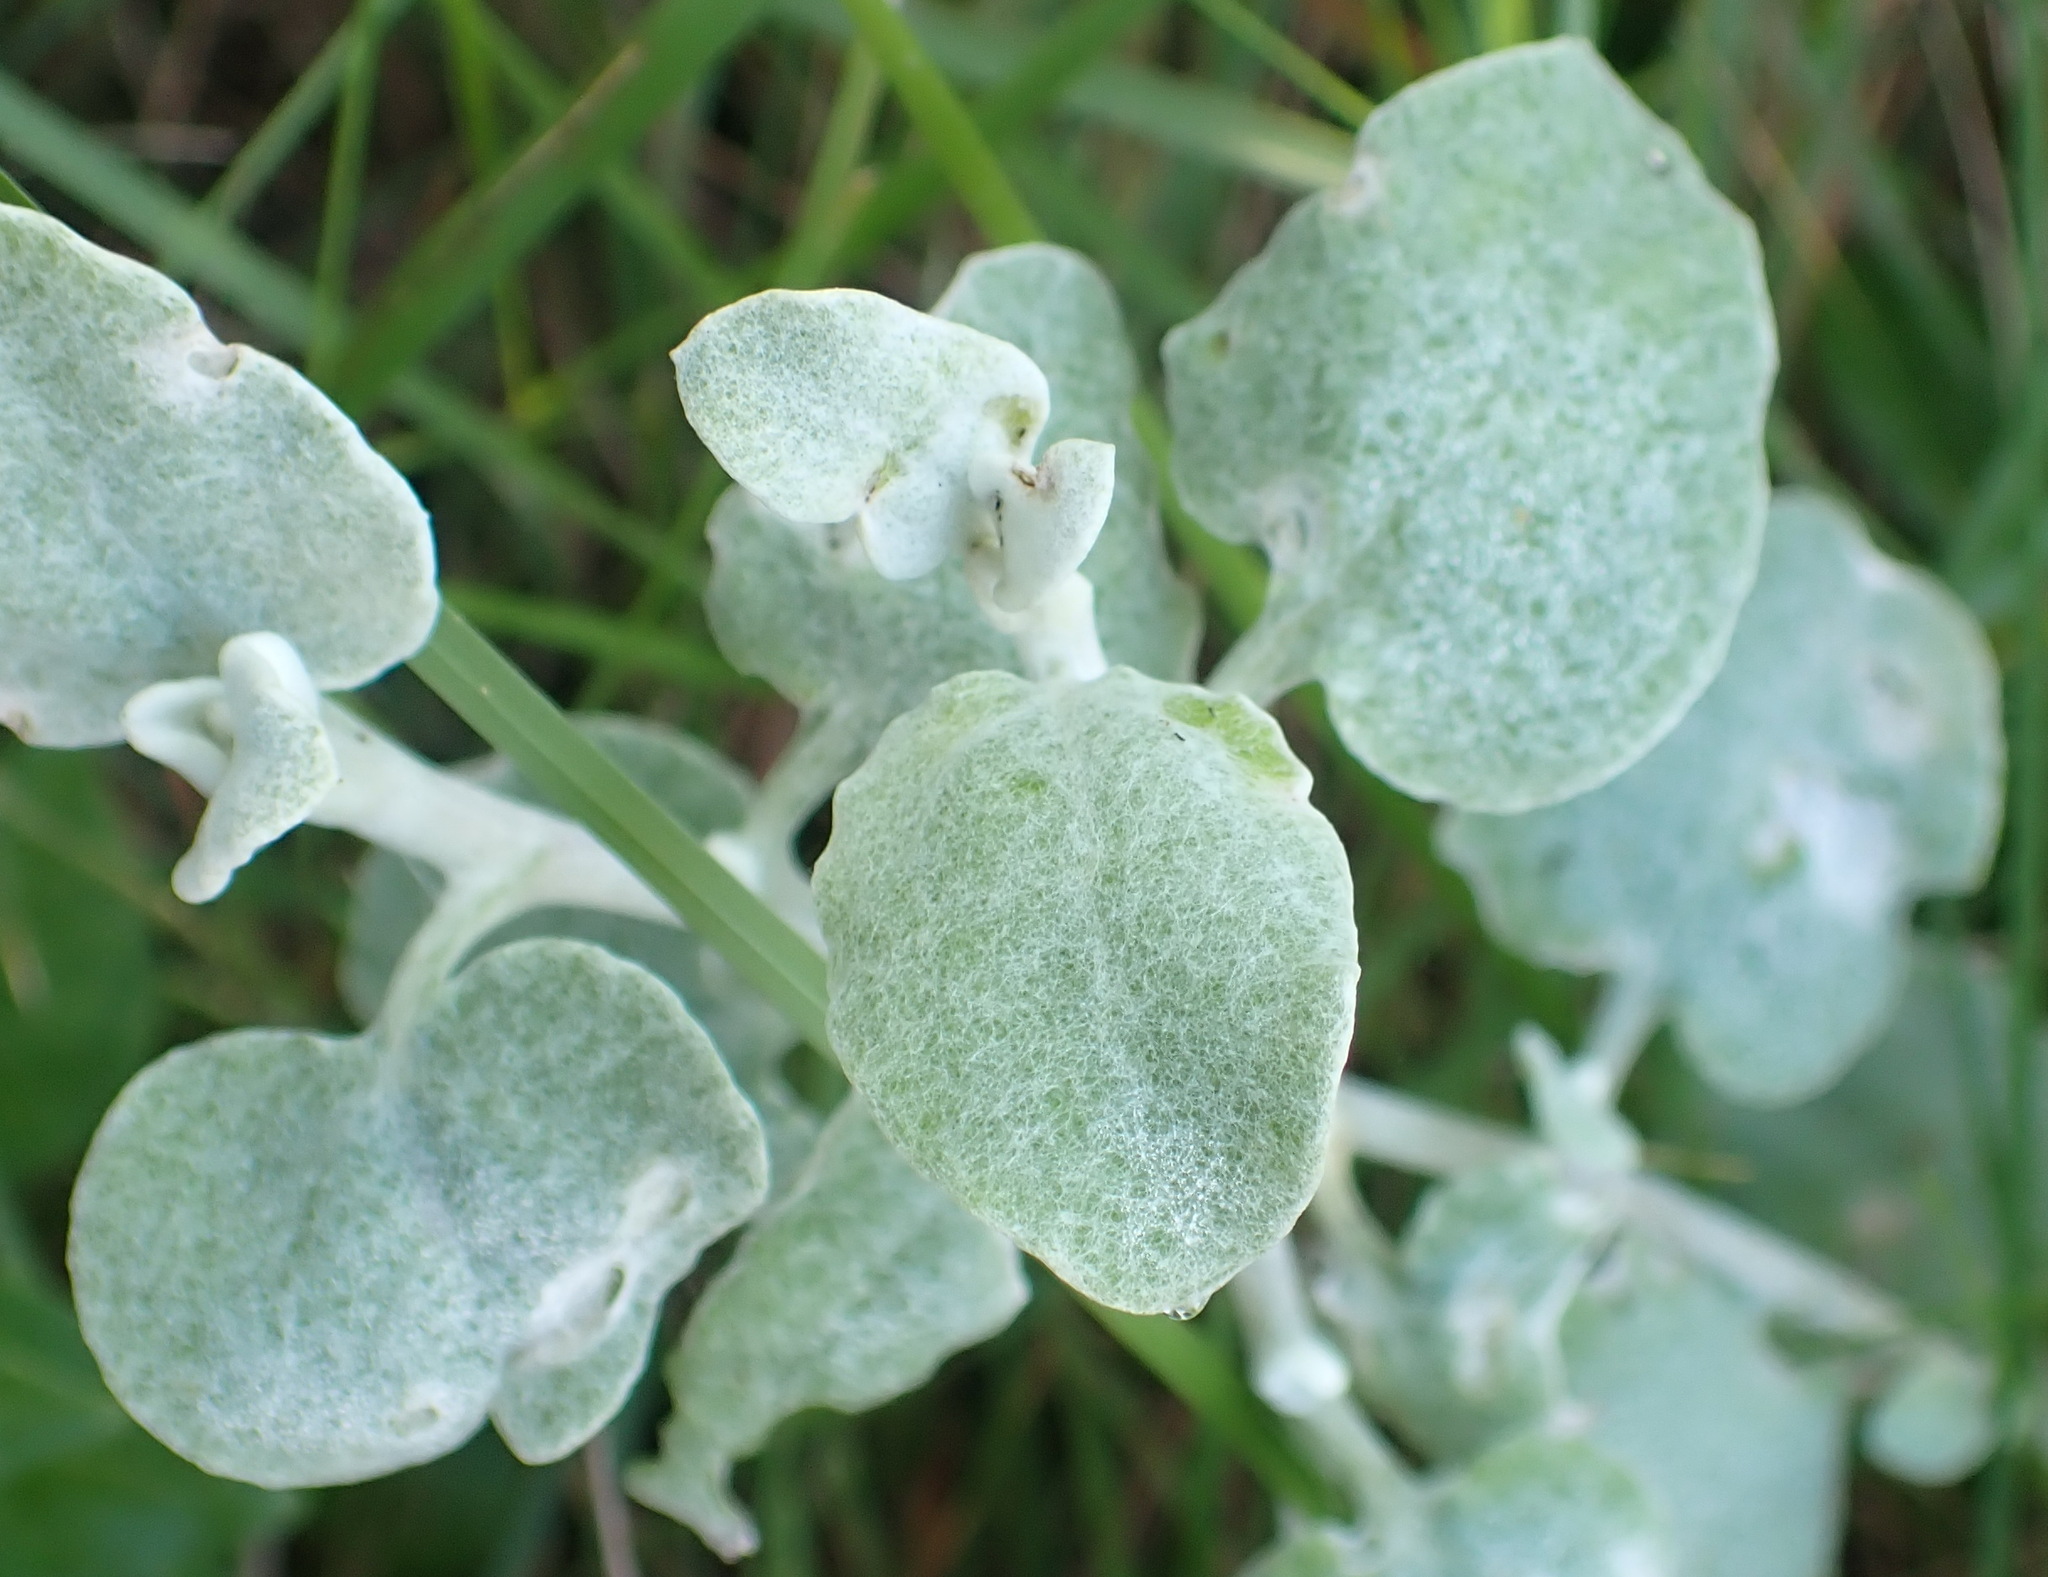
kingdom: Plantae
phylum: Tracheophyta
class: Magnoliopsida
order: Asterales
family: Asteraceae
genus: Helichrysum
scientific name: Helichrysum petiolare
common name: Licorice-plant
